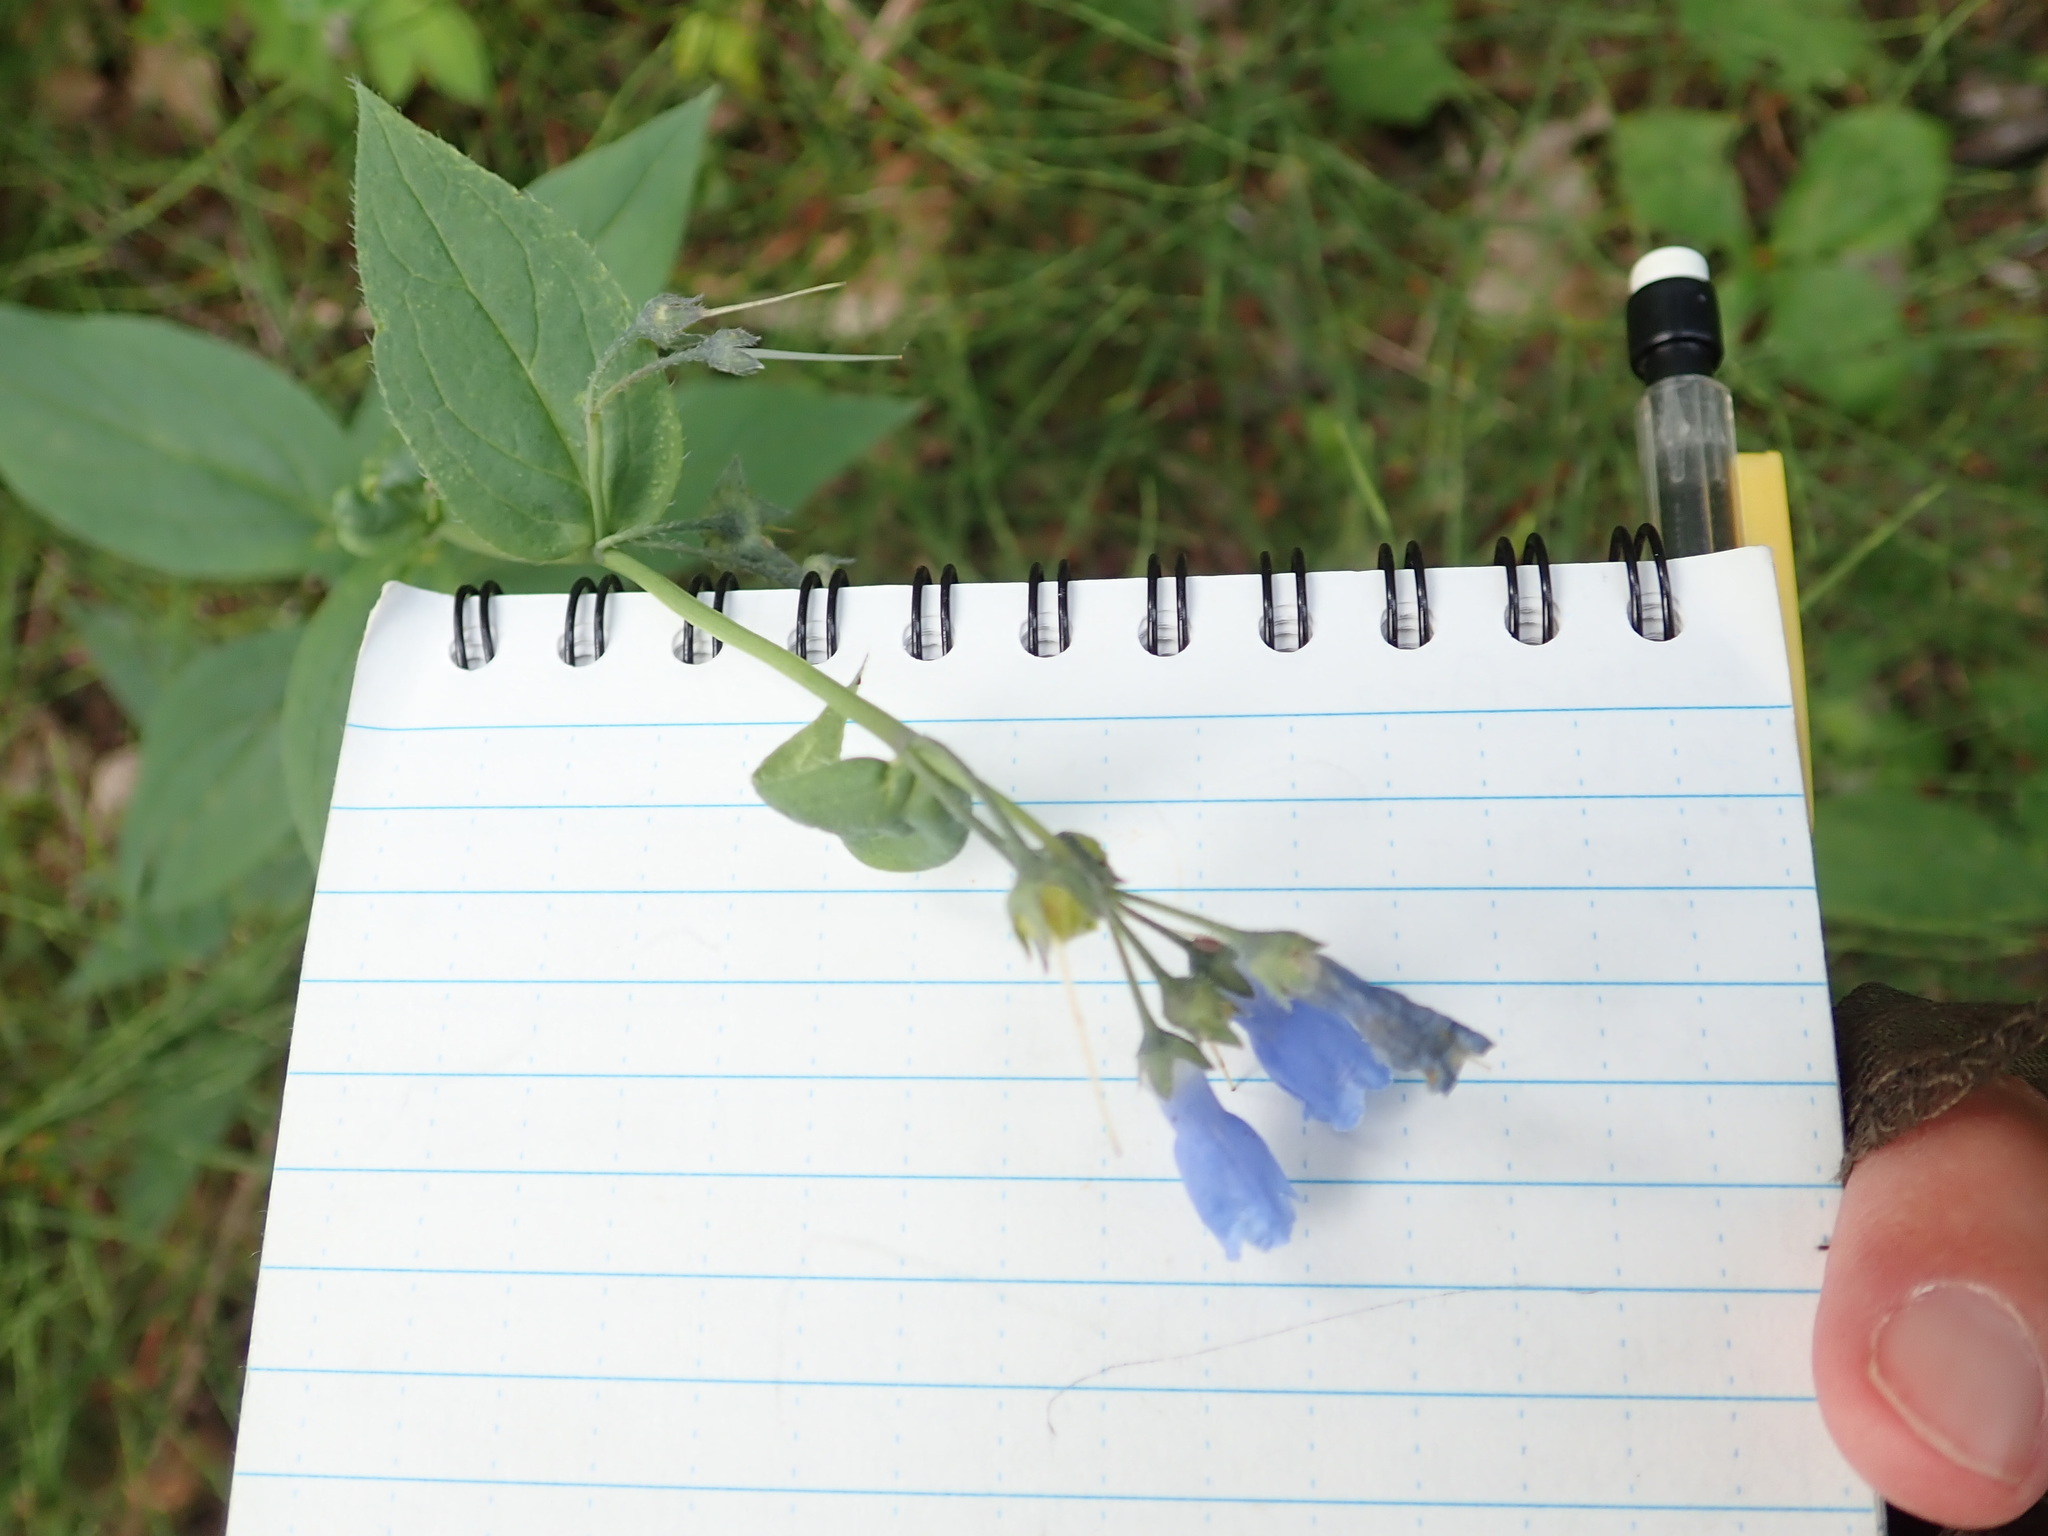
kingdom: Plantae
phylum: Tracheophyta
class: Magnoliopsida
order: Boraginales
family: Boraginaceae
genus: Mertensia
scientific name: Mertensia paniculata
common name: Panicled bluebells
